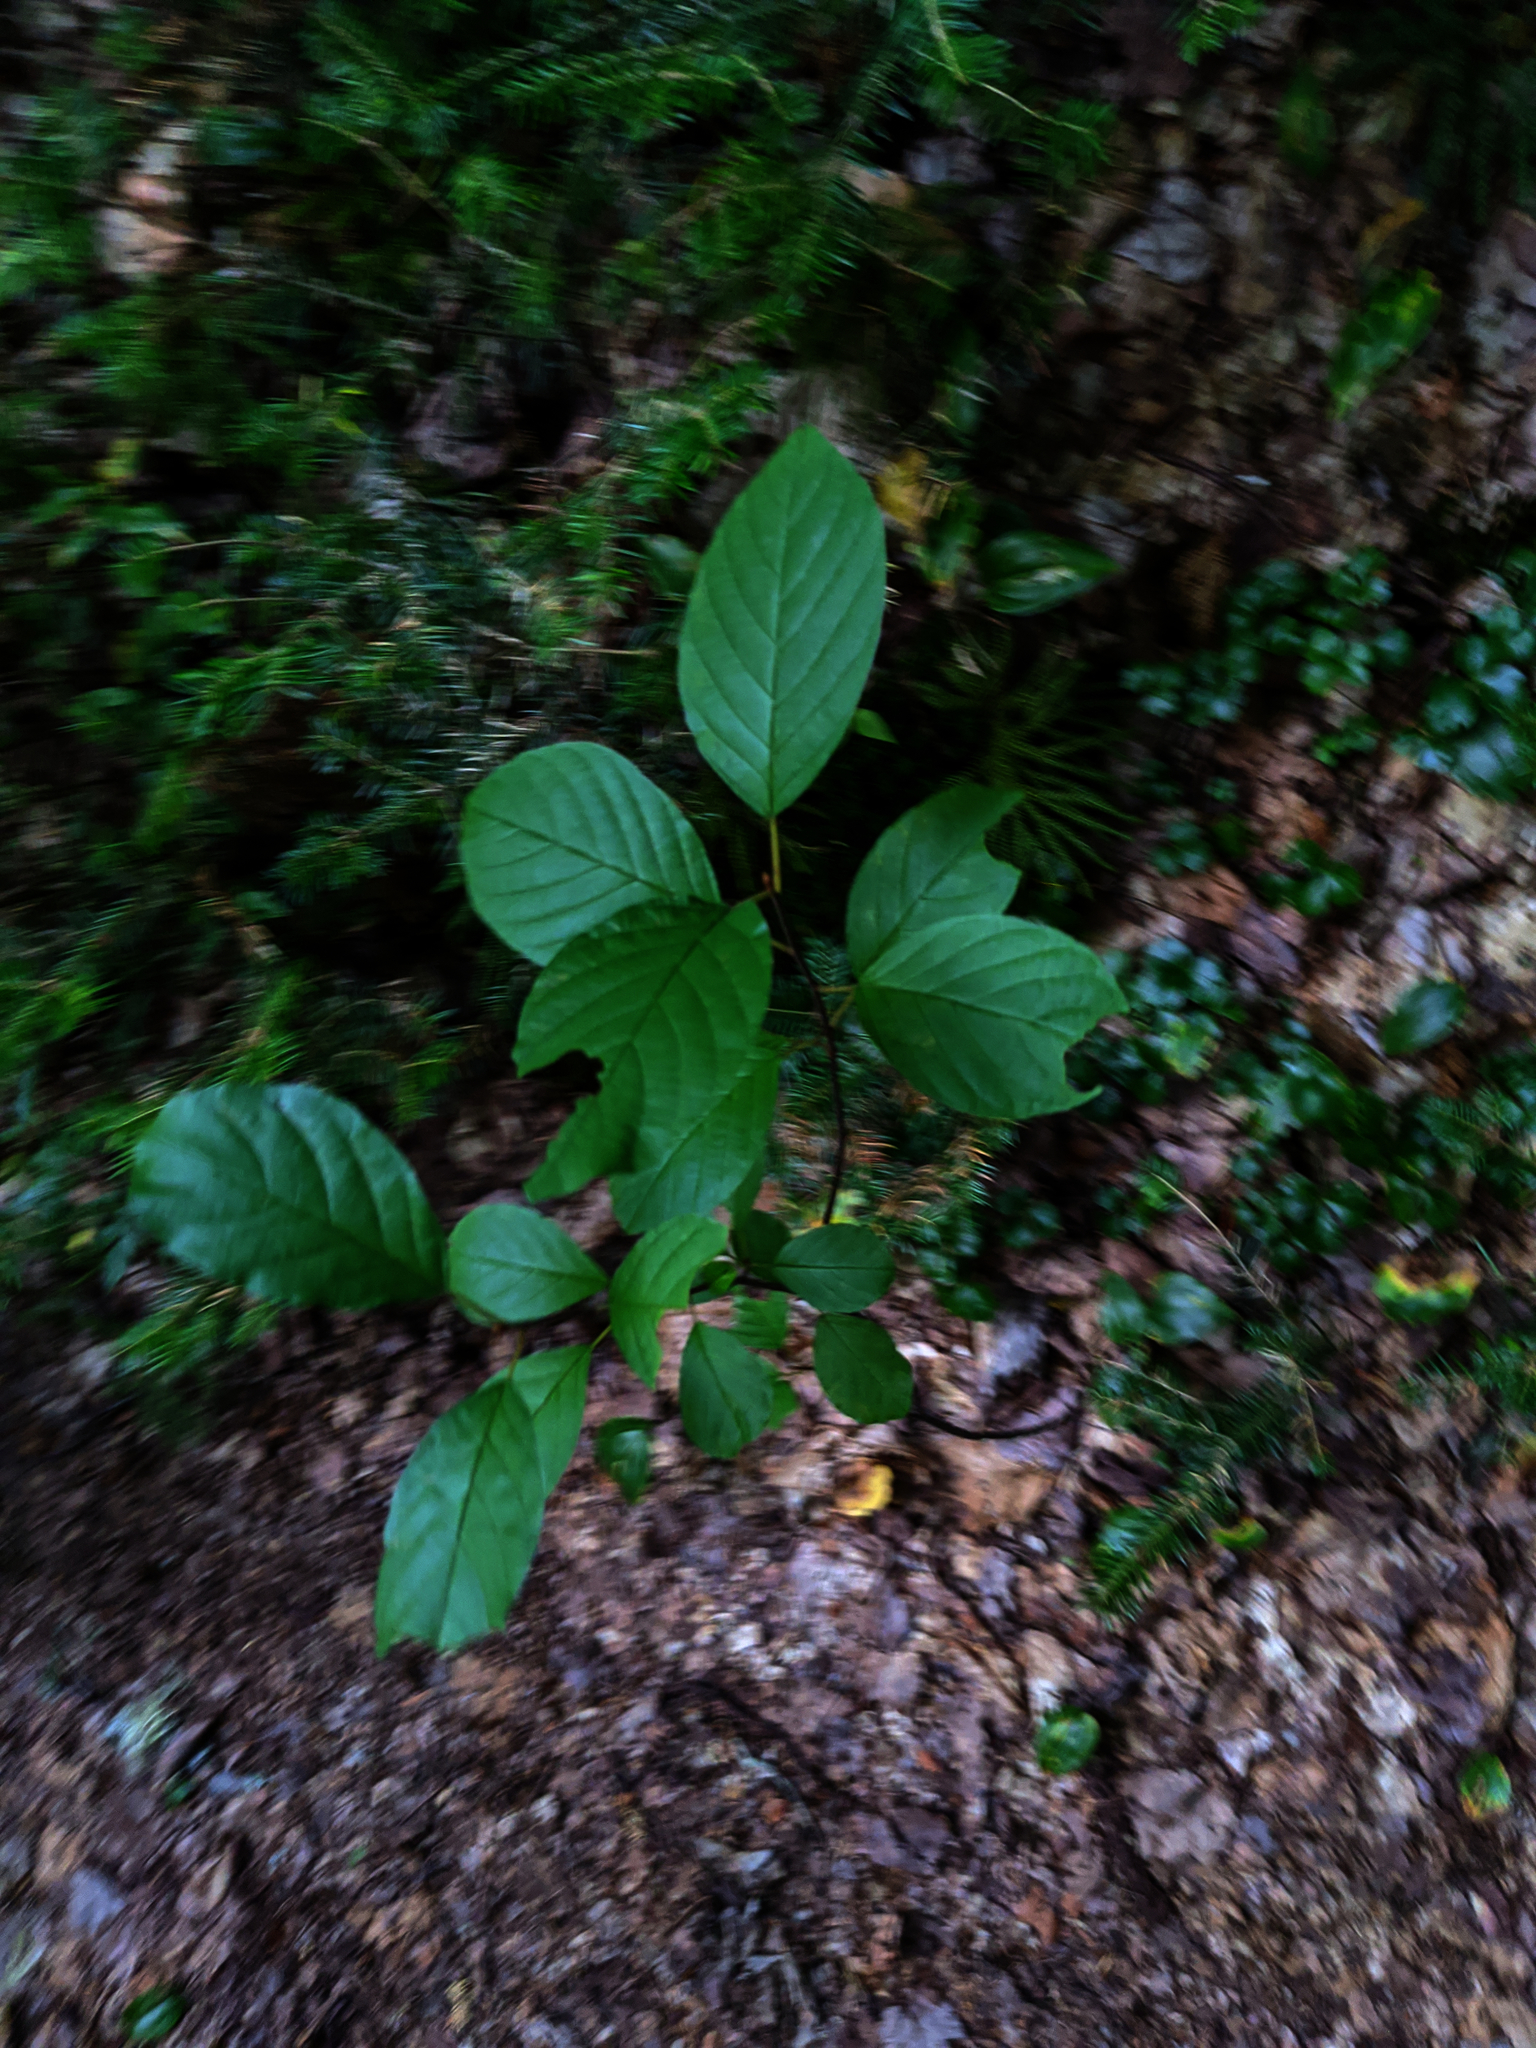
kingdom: Plantae
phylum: Tracheophyta
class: Magnoliopsida
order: Rosales
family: Rhamnaceae
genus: Frangula
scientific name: Frangula alnus
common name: Alder buckthorn
